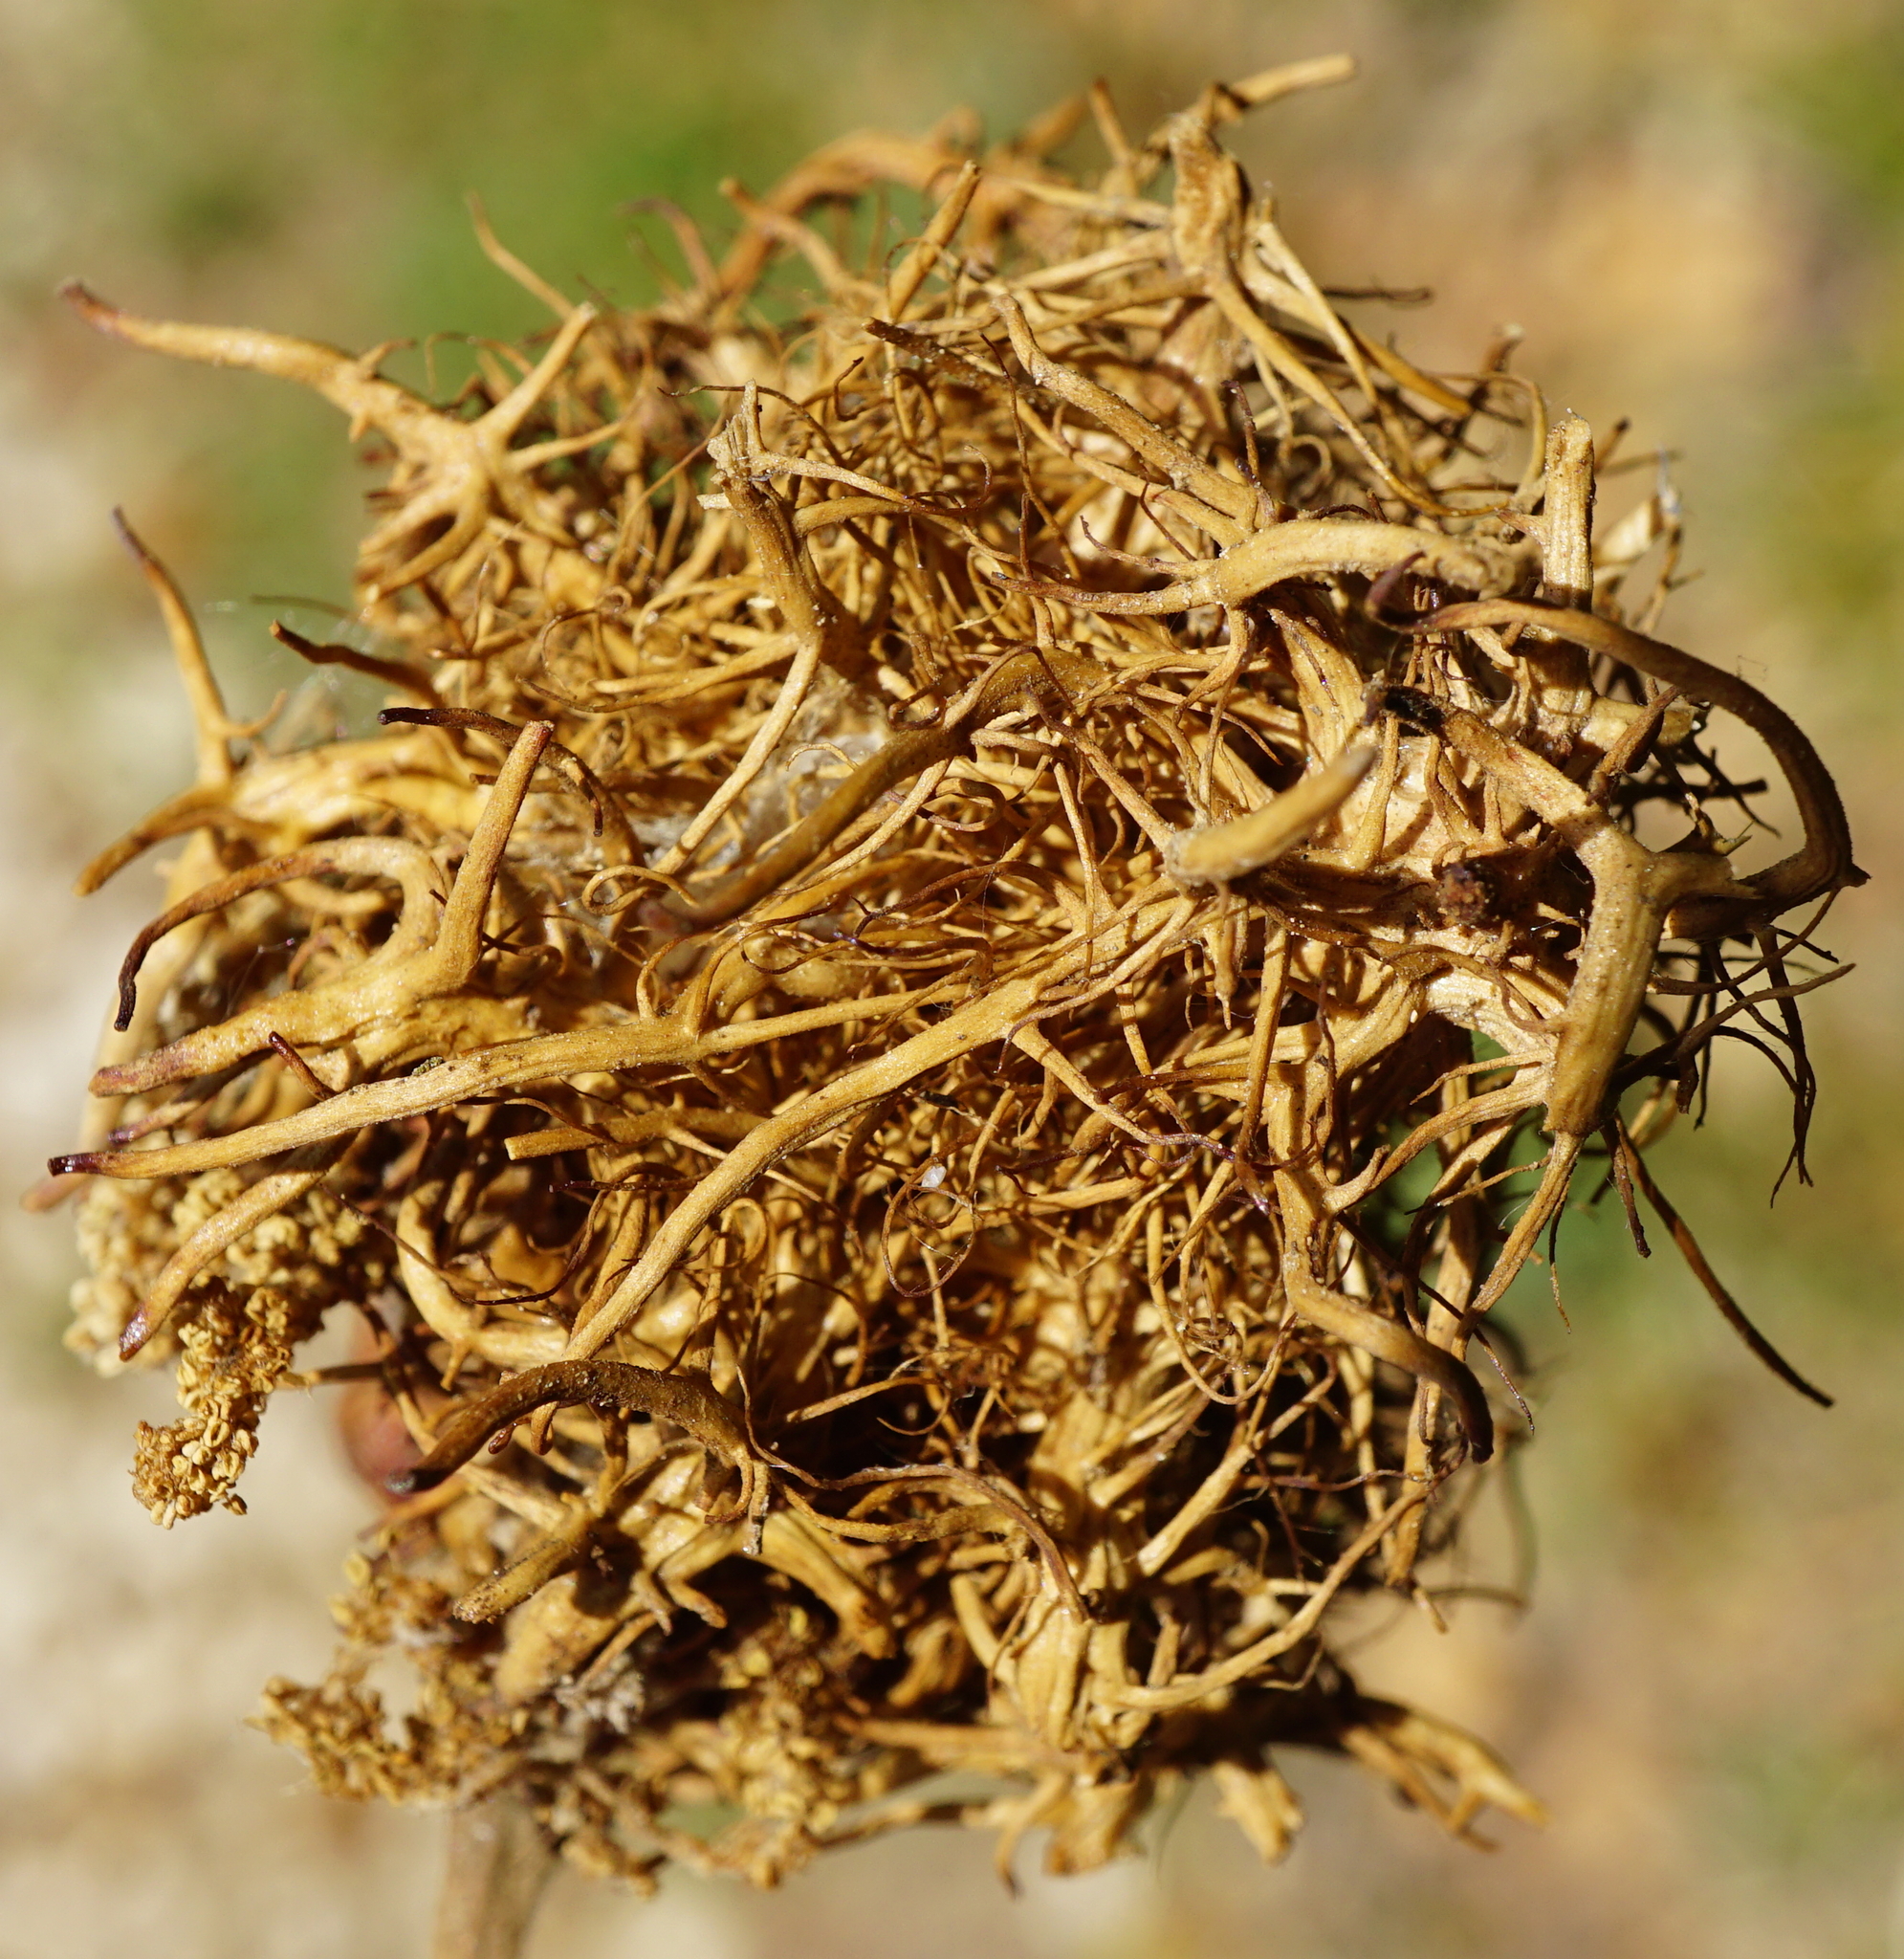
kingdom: Animalia
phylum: Arthropoda
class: Insecta
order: Hymenoptera
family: Cynipidae
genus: Andricus
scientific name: Andricus caputmedusae
